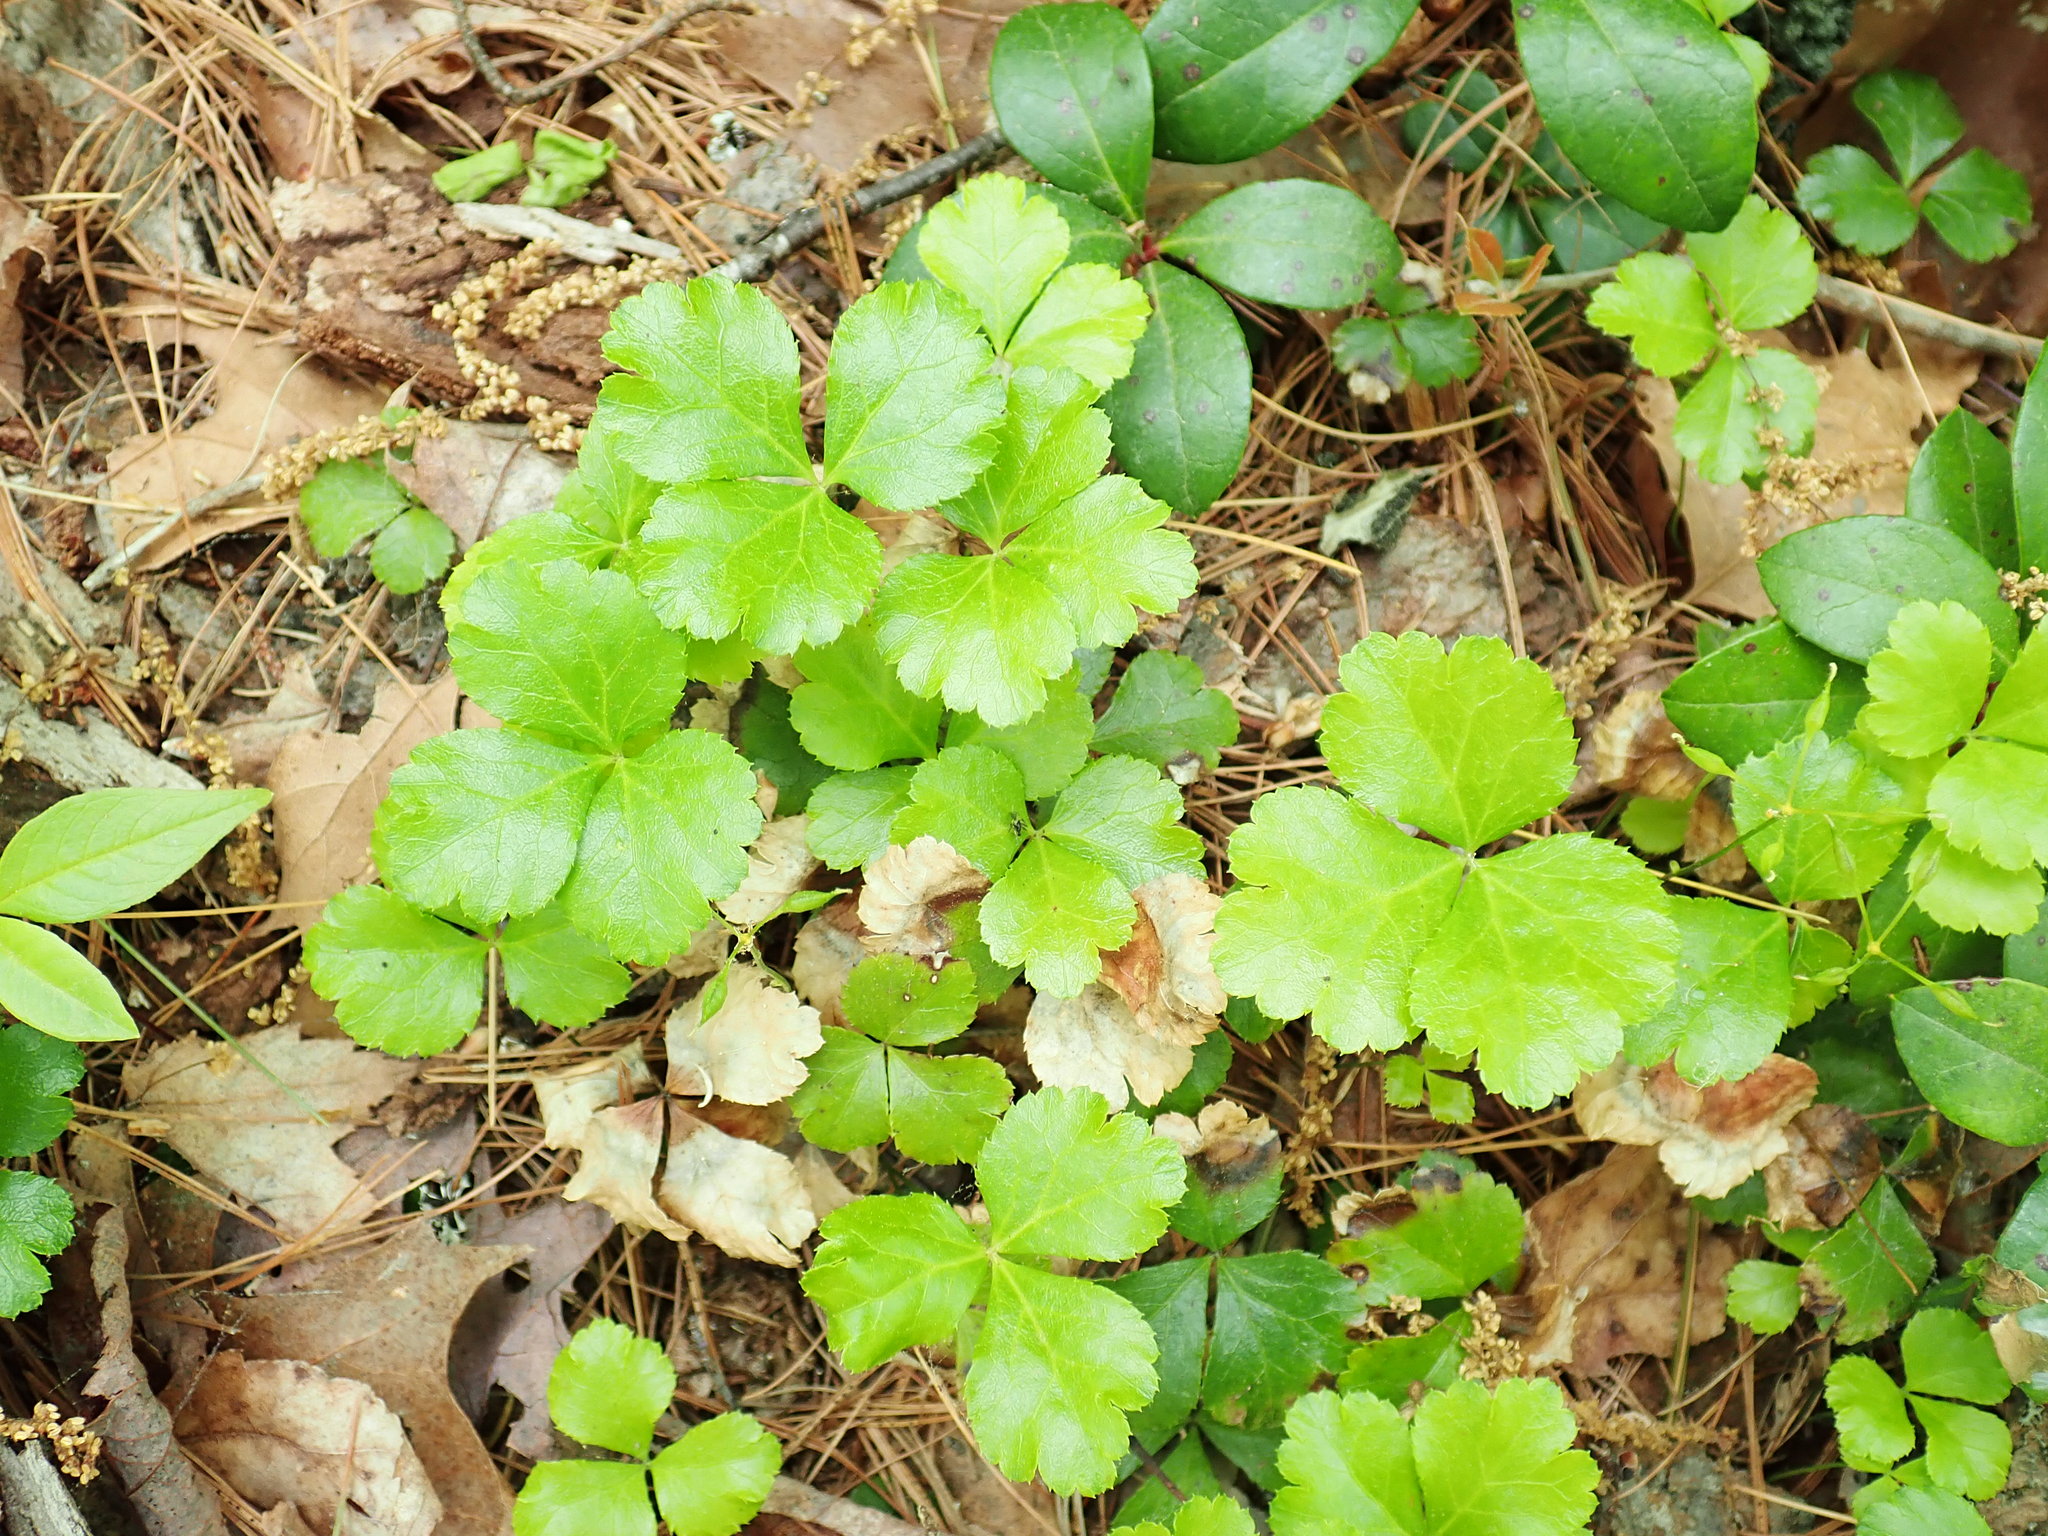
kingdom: Plantae
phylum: Tracheophyta
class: Magnoliopsida
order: Ranunculales
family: Ranunculaceae
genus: Coptis
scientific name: Coptis trifolia
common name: Canker-root
